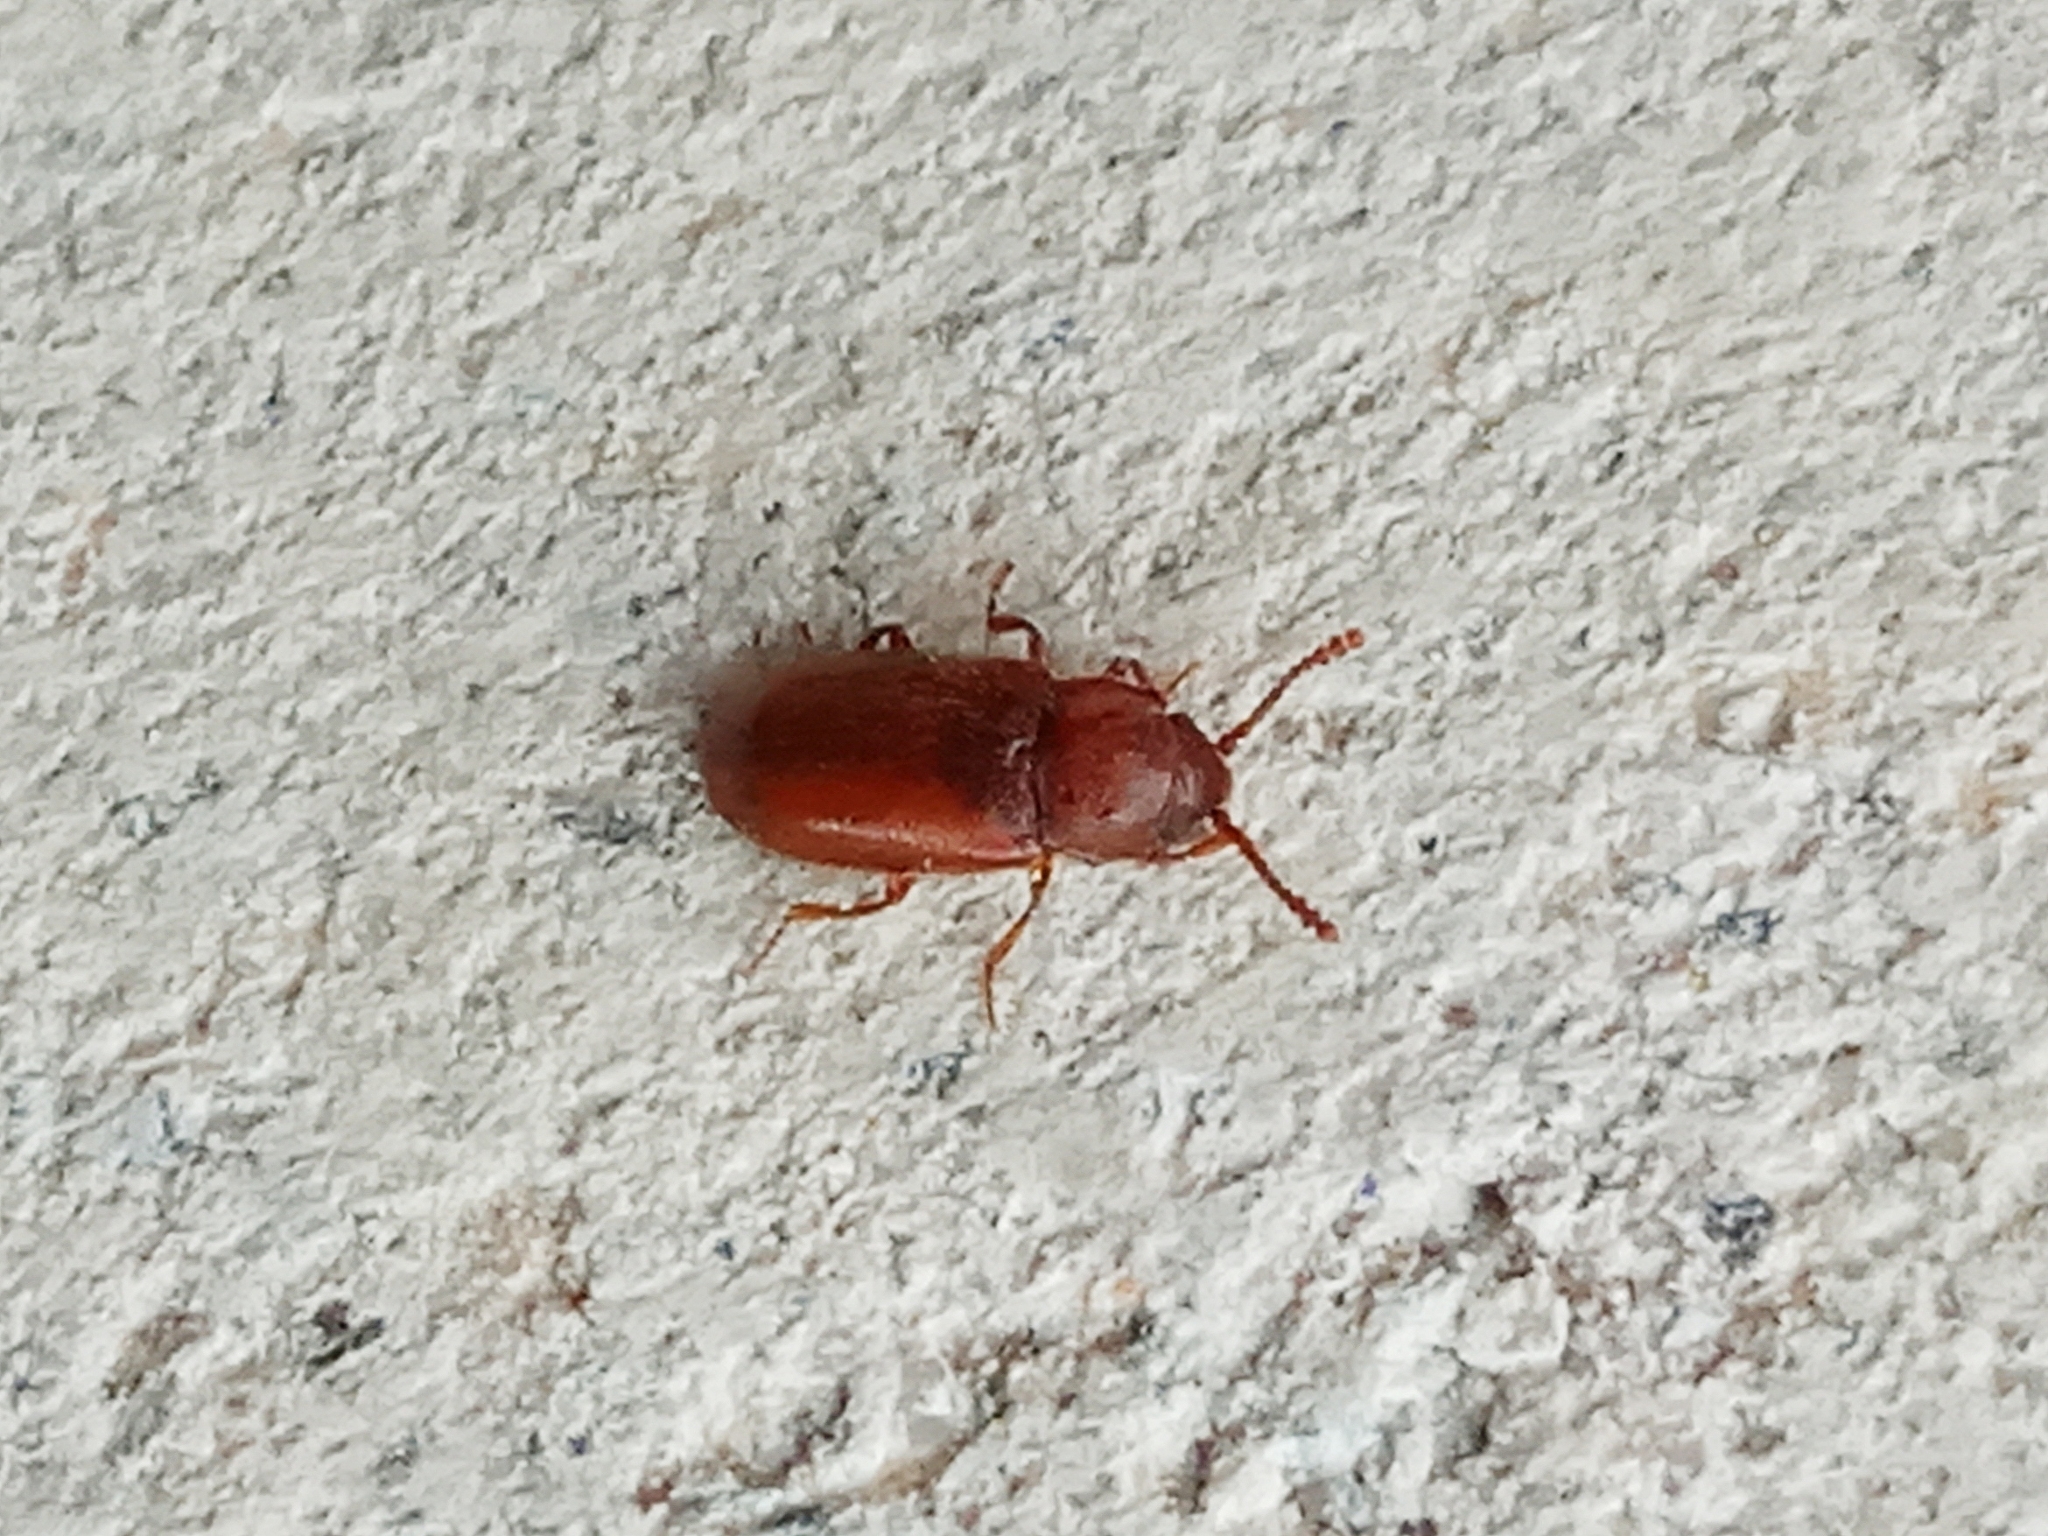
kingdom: Animalia
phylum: Arthropoda
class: Insecta
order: Coleoptera
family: Cryptophagidae
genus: Cryptophagus
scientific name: Cryptophagus
